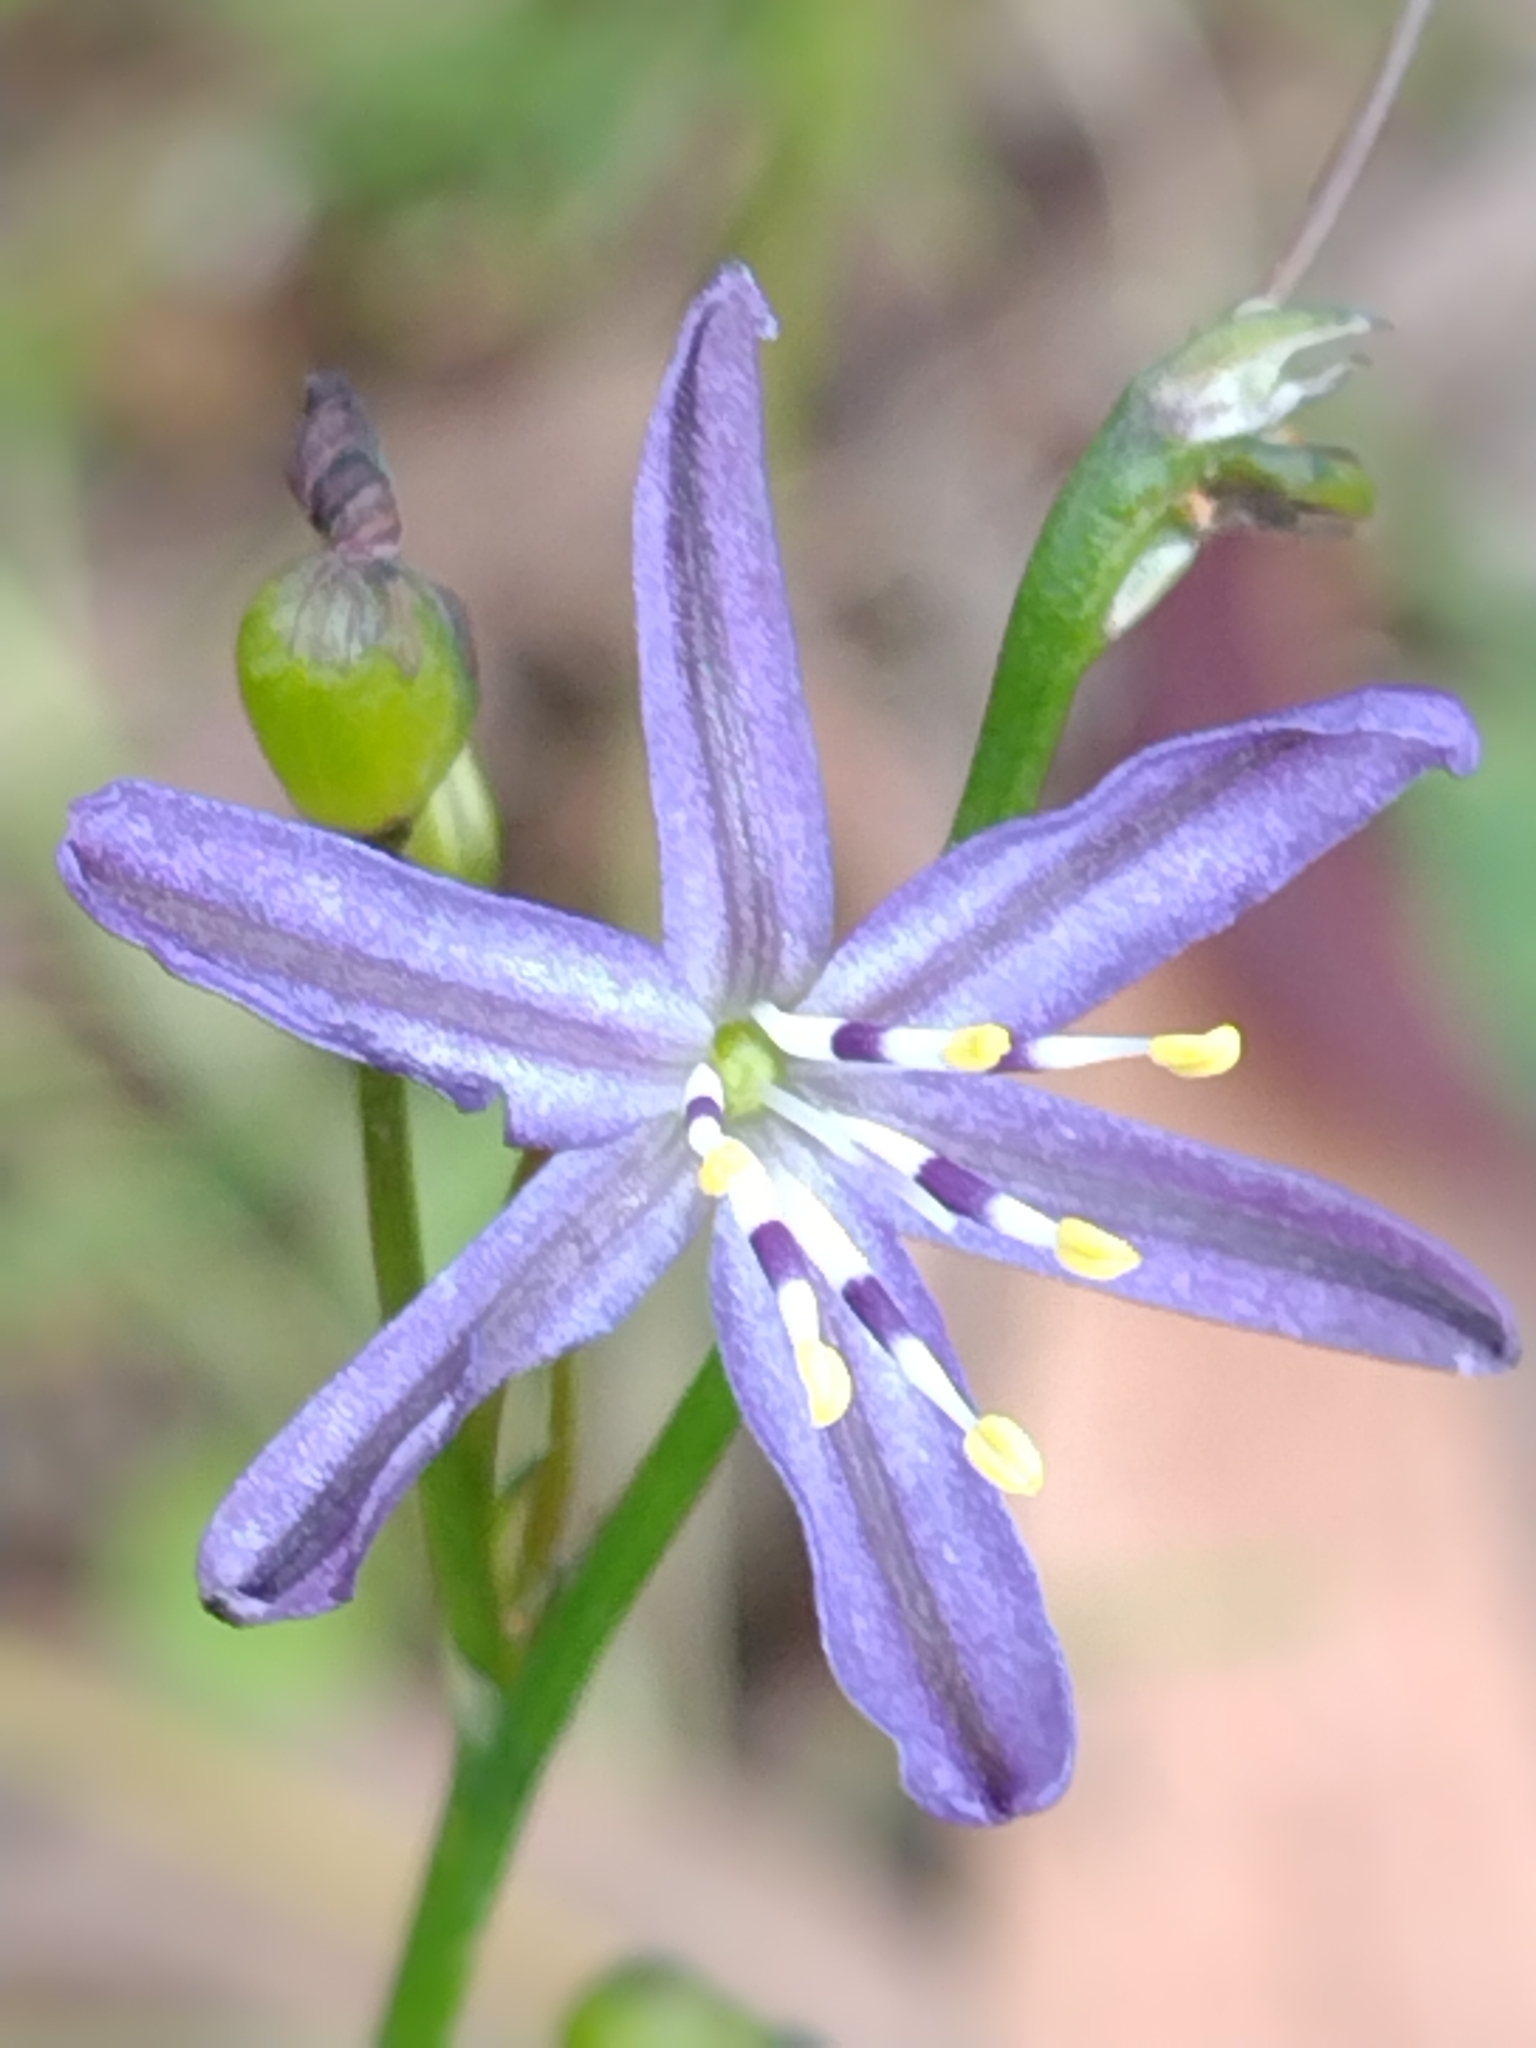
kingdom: Plantae
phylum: Tracheophyta
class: Liliopsida
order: Asparagales
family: Asphodelaceae
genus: Caesia
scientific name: Caesia parviflora
